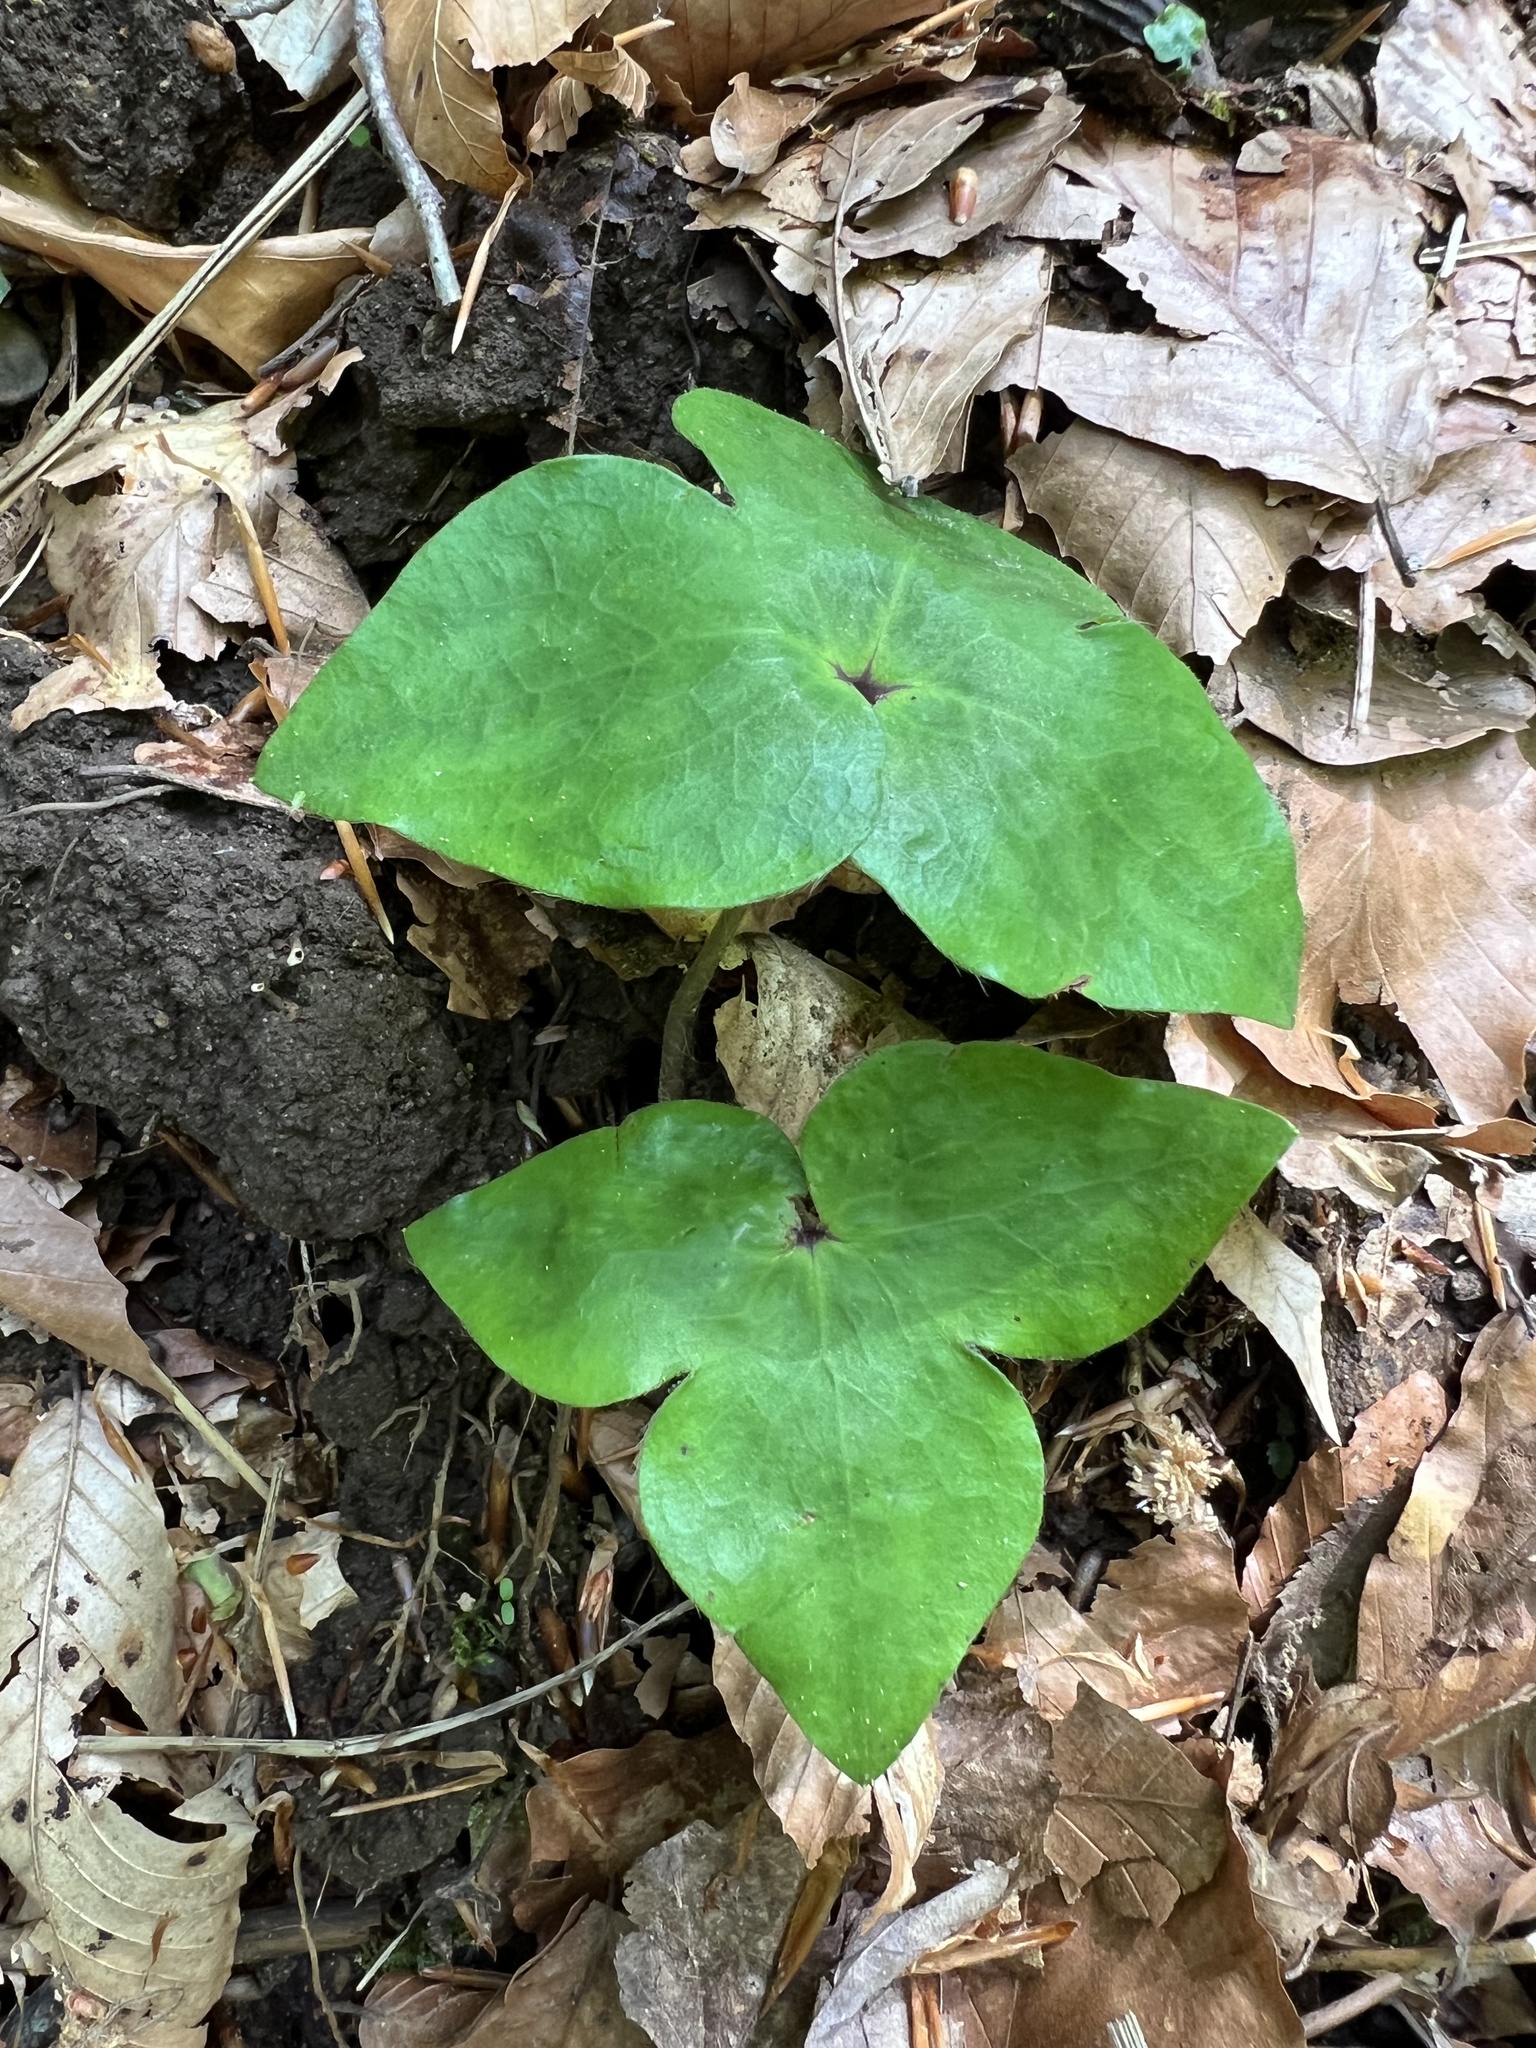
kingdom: Plantae
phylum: Tracheophyta
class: Magnoliopsida
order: Ranunculales
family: Ranunculaceae
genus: Hepatica
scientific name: Hepatica acutiloba
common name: Sharp-lobed hepatica
